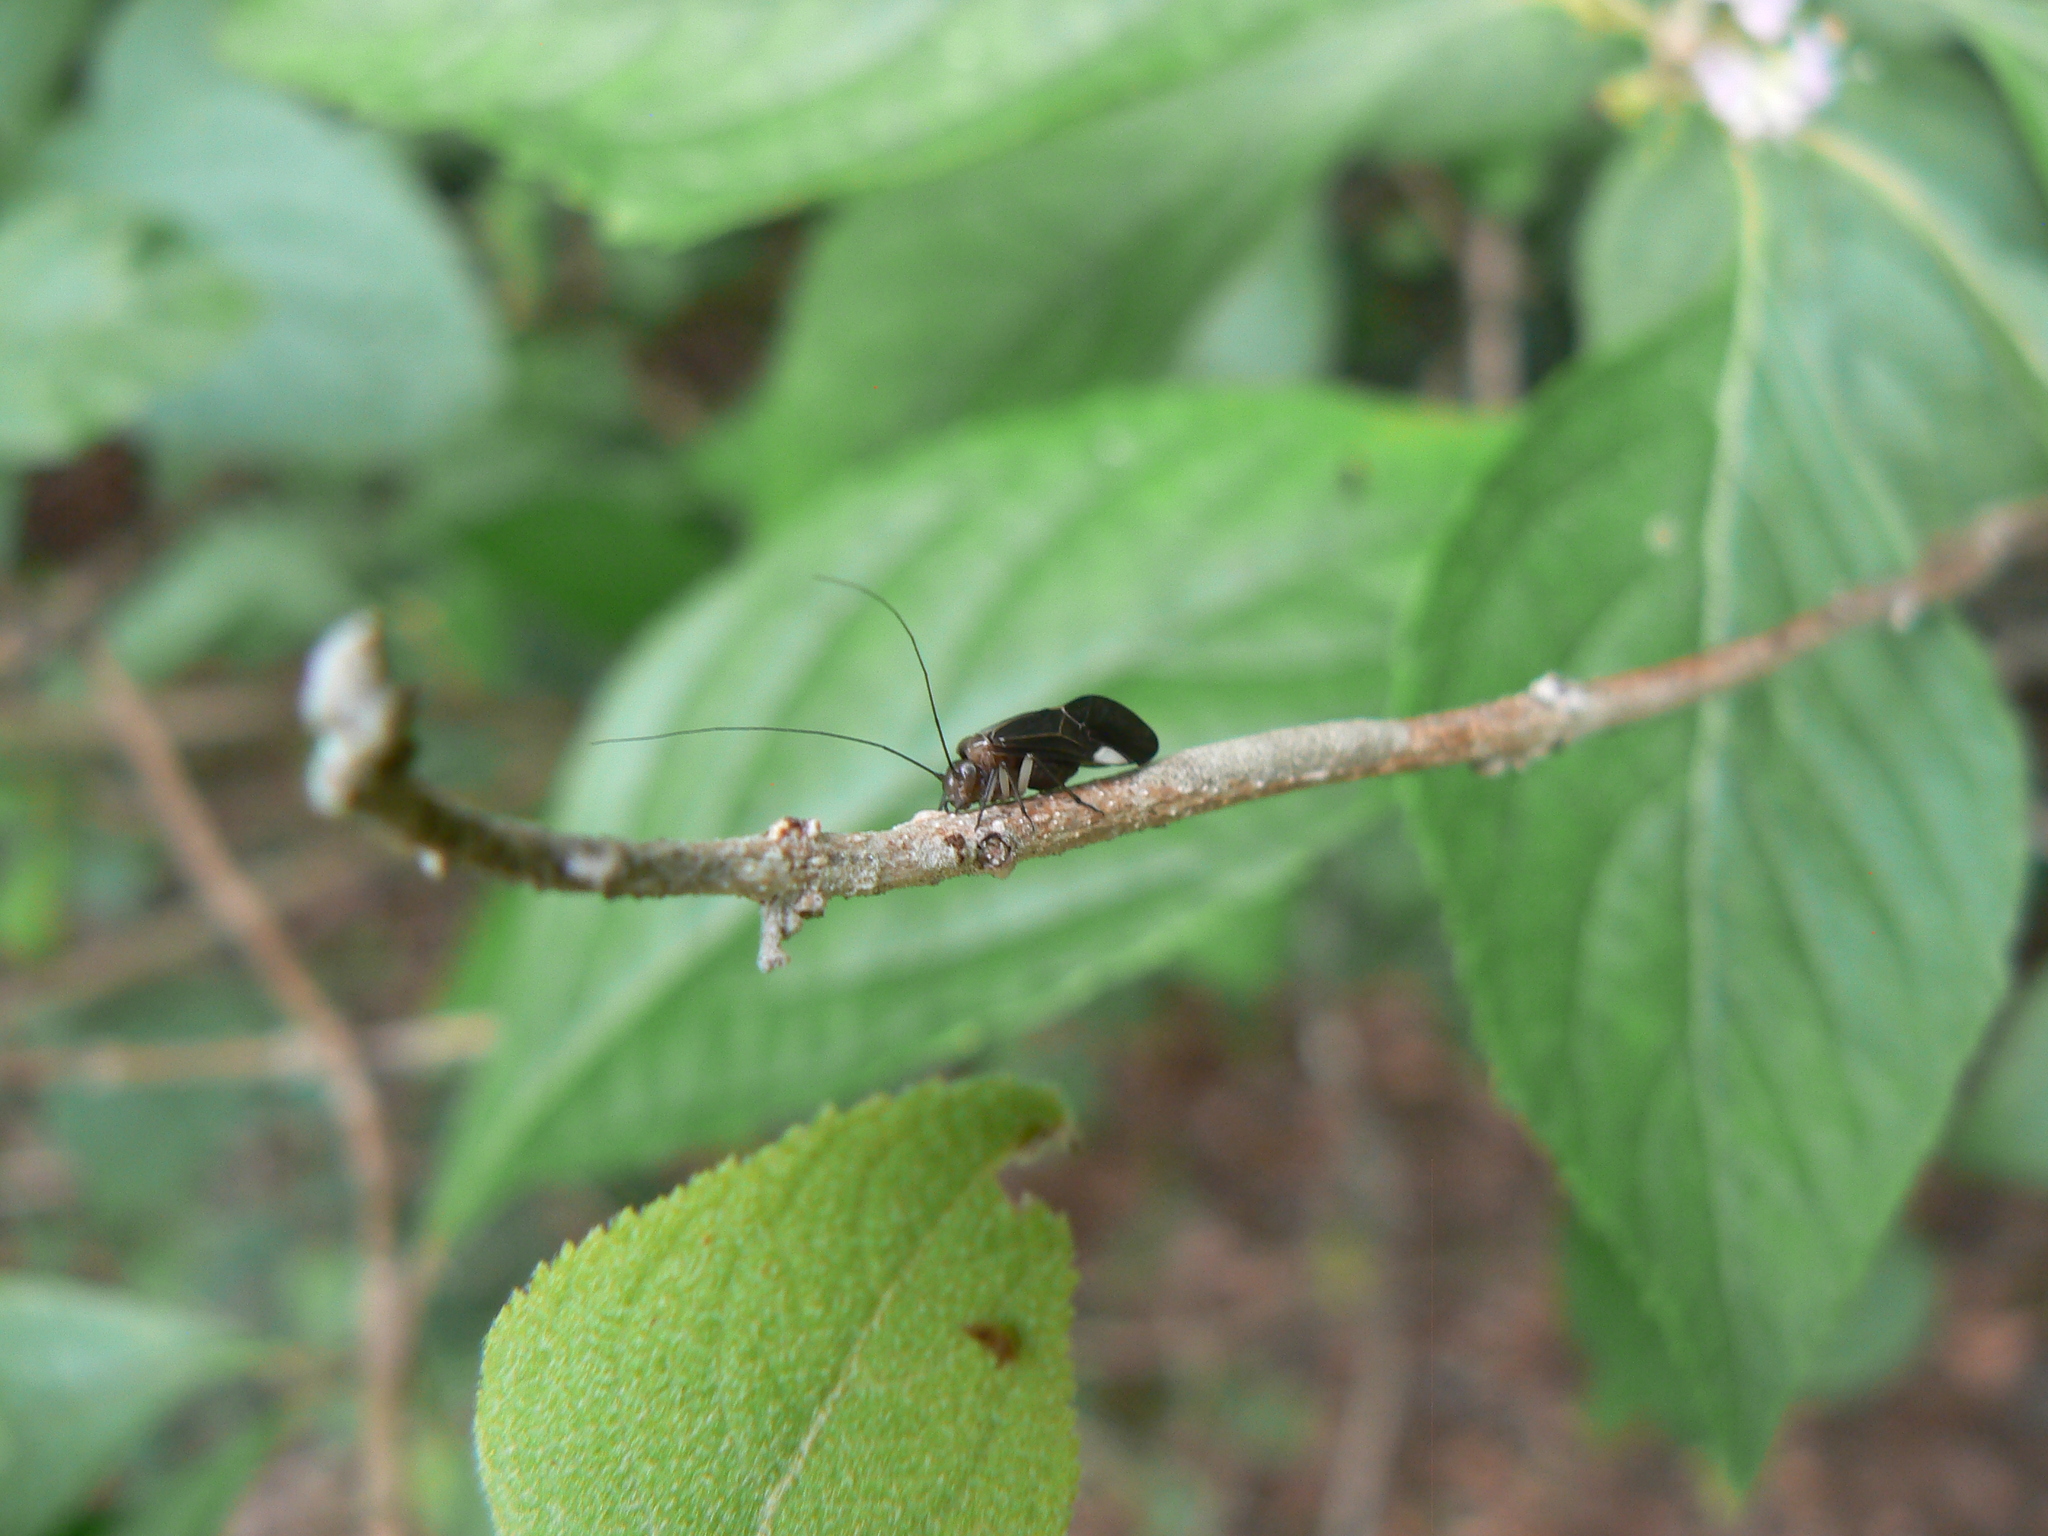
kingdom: Animalia
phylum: Arthropoda
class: Insecta
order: Psocodea
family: Psocidae
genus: Cerastipsocus
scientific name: Cerastipsocus venosus
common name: Tree cattle
